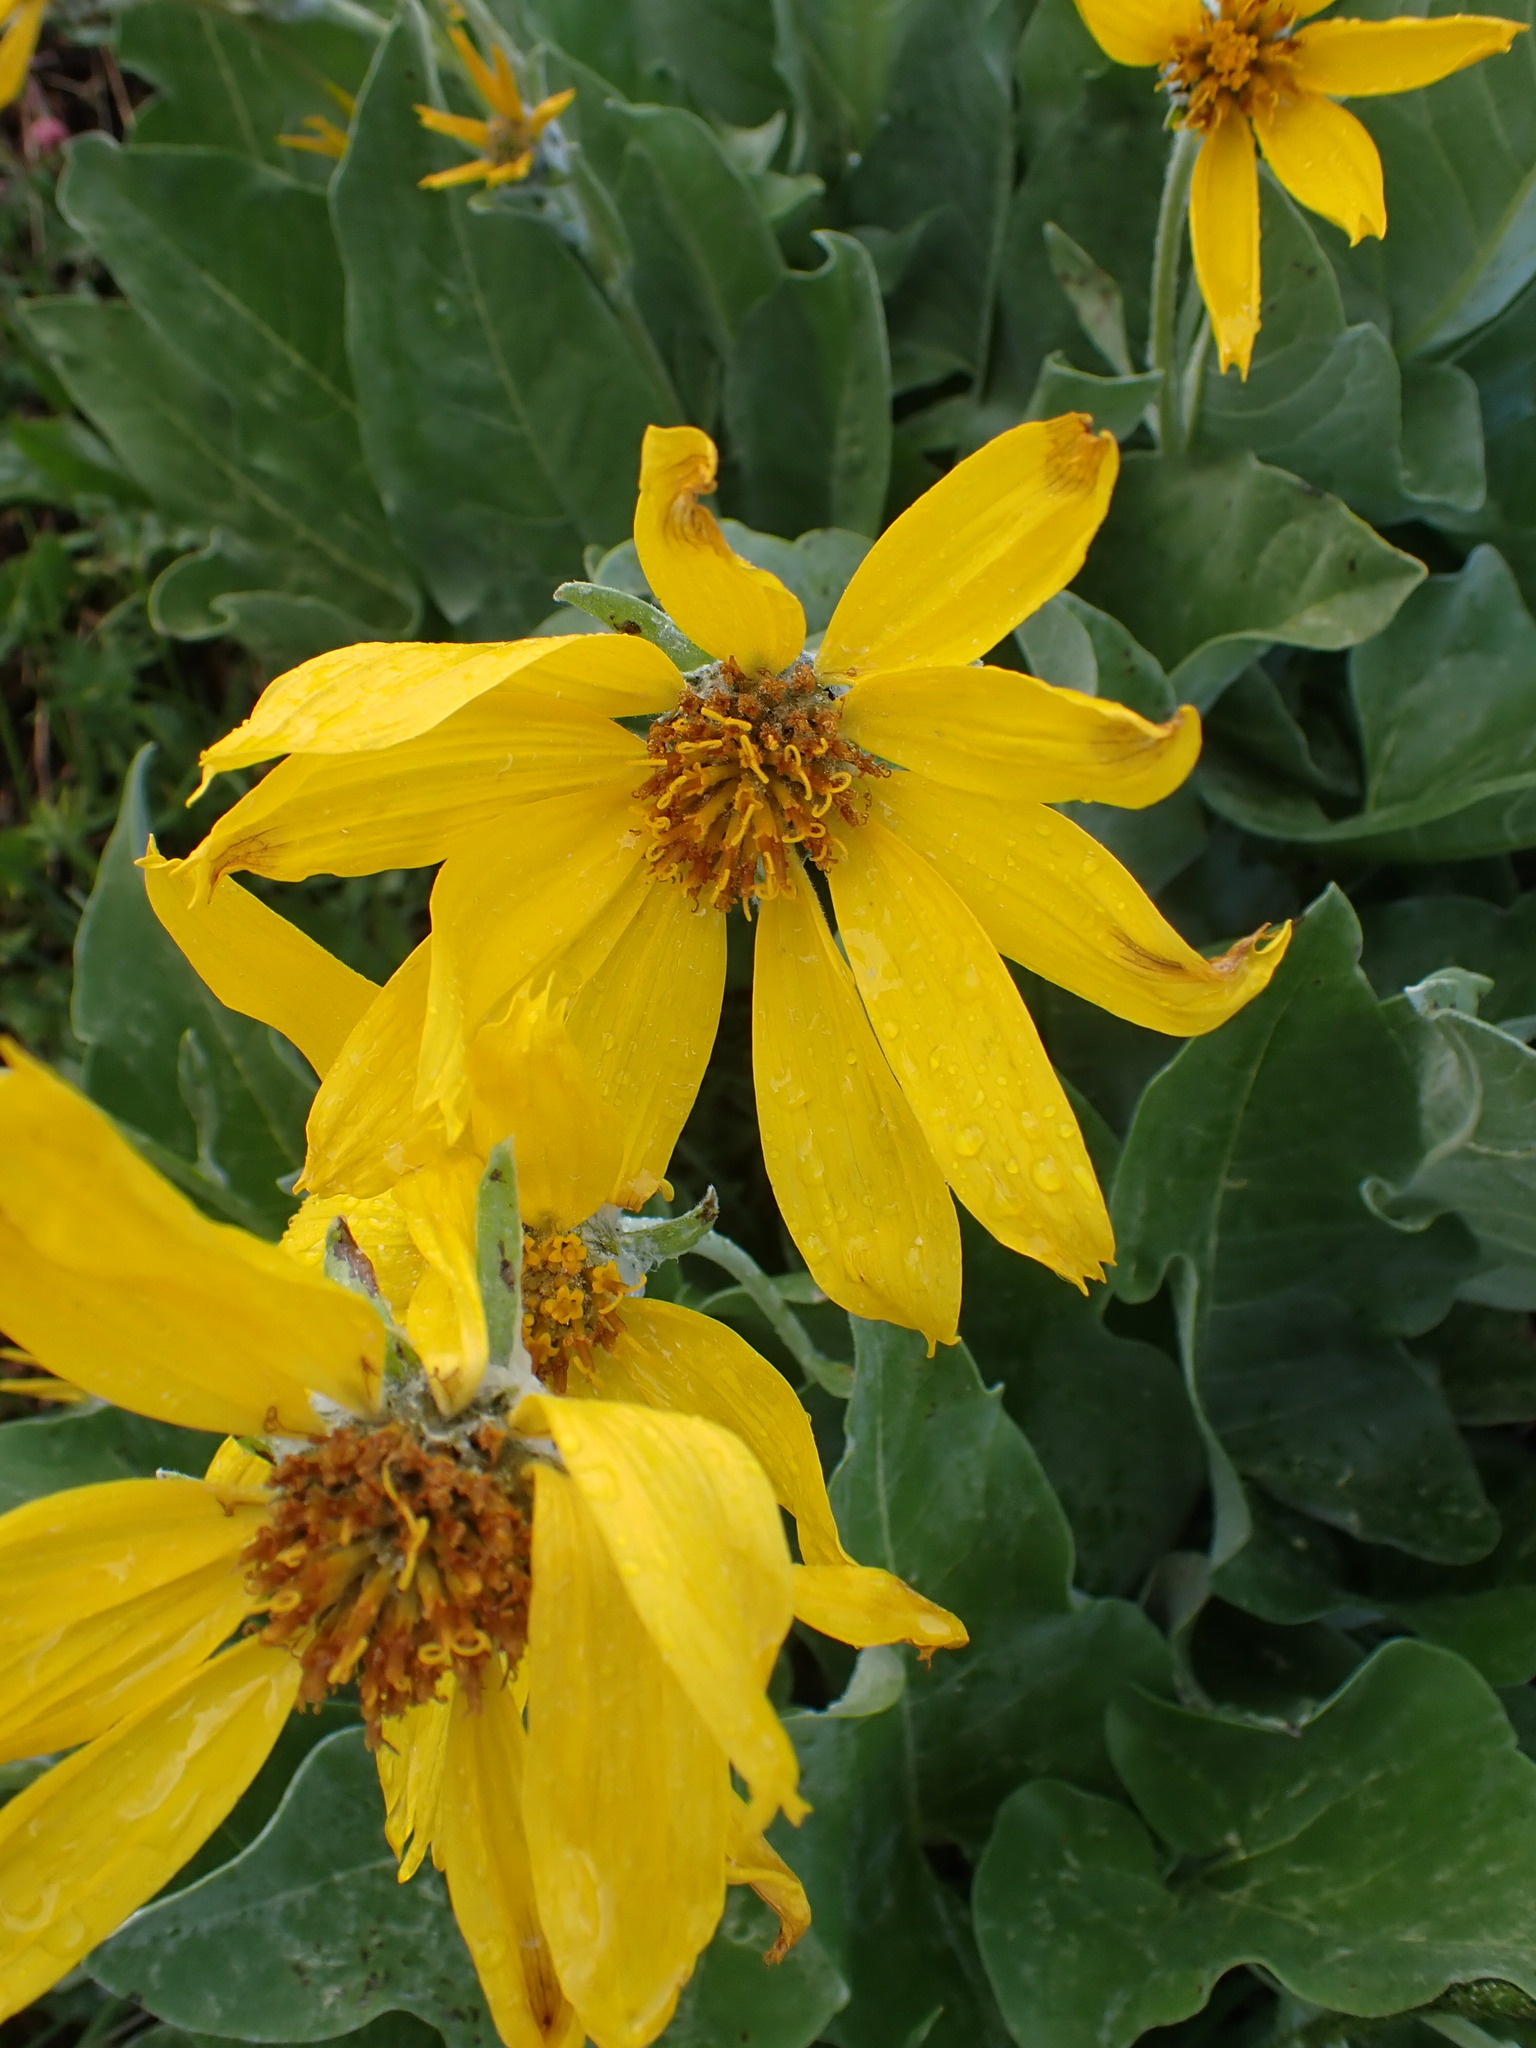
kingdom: Plantae
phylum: Tracheophyta
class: Magnoliopsida
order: Asterales
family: Asteraceae
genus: Wyethia
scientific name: Wyethia sagittata
